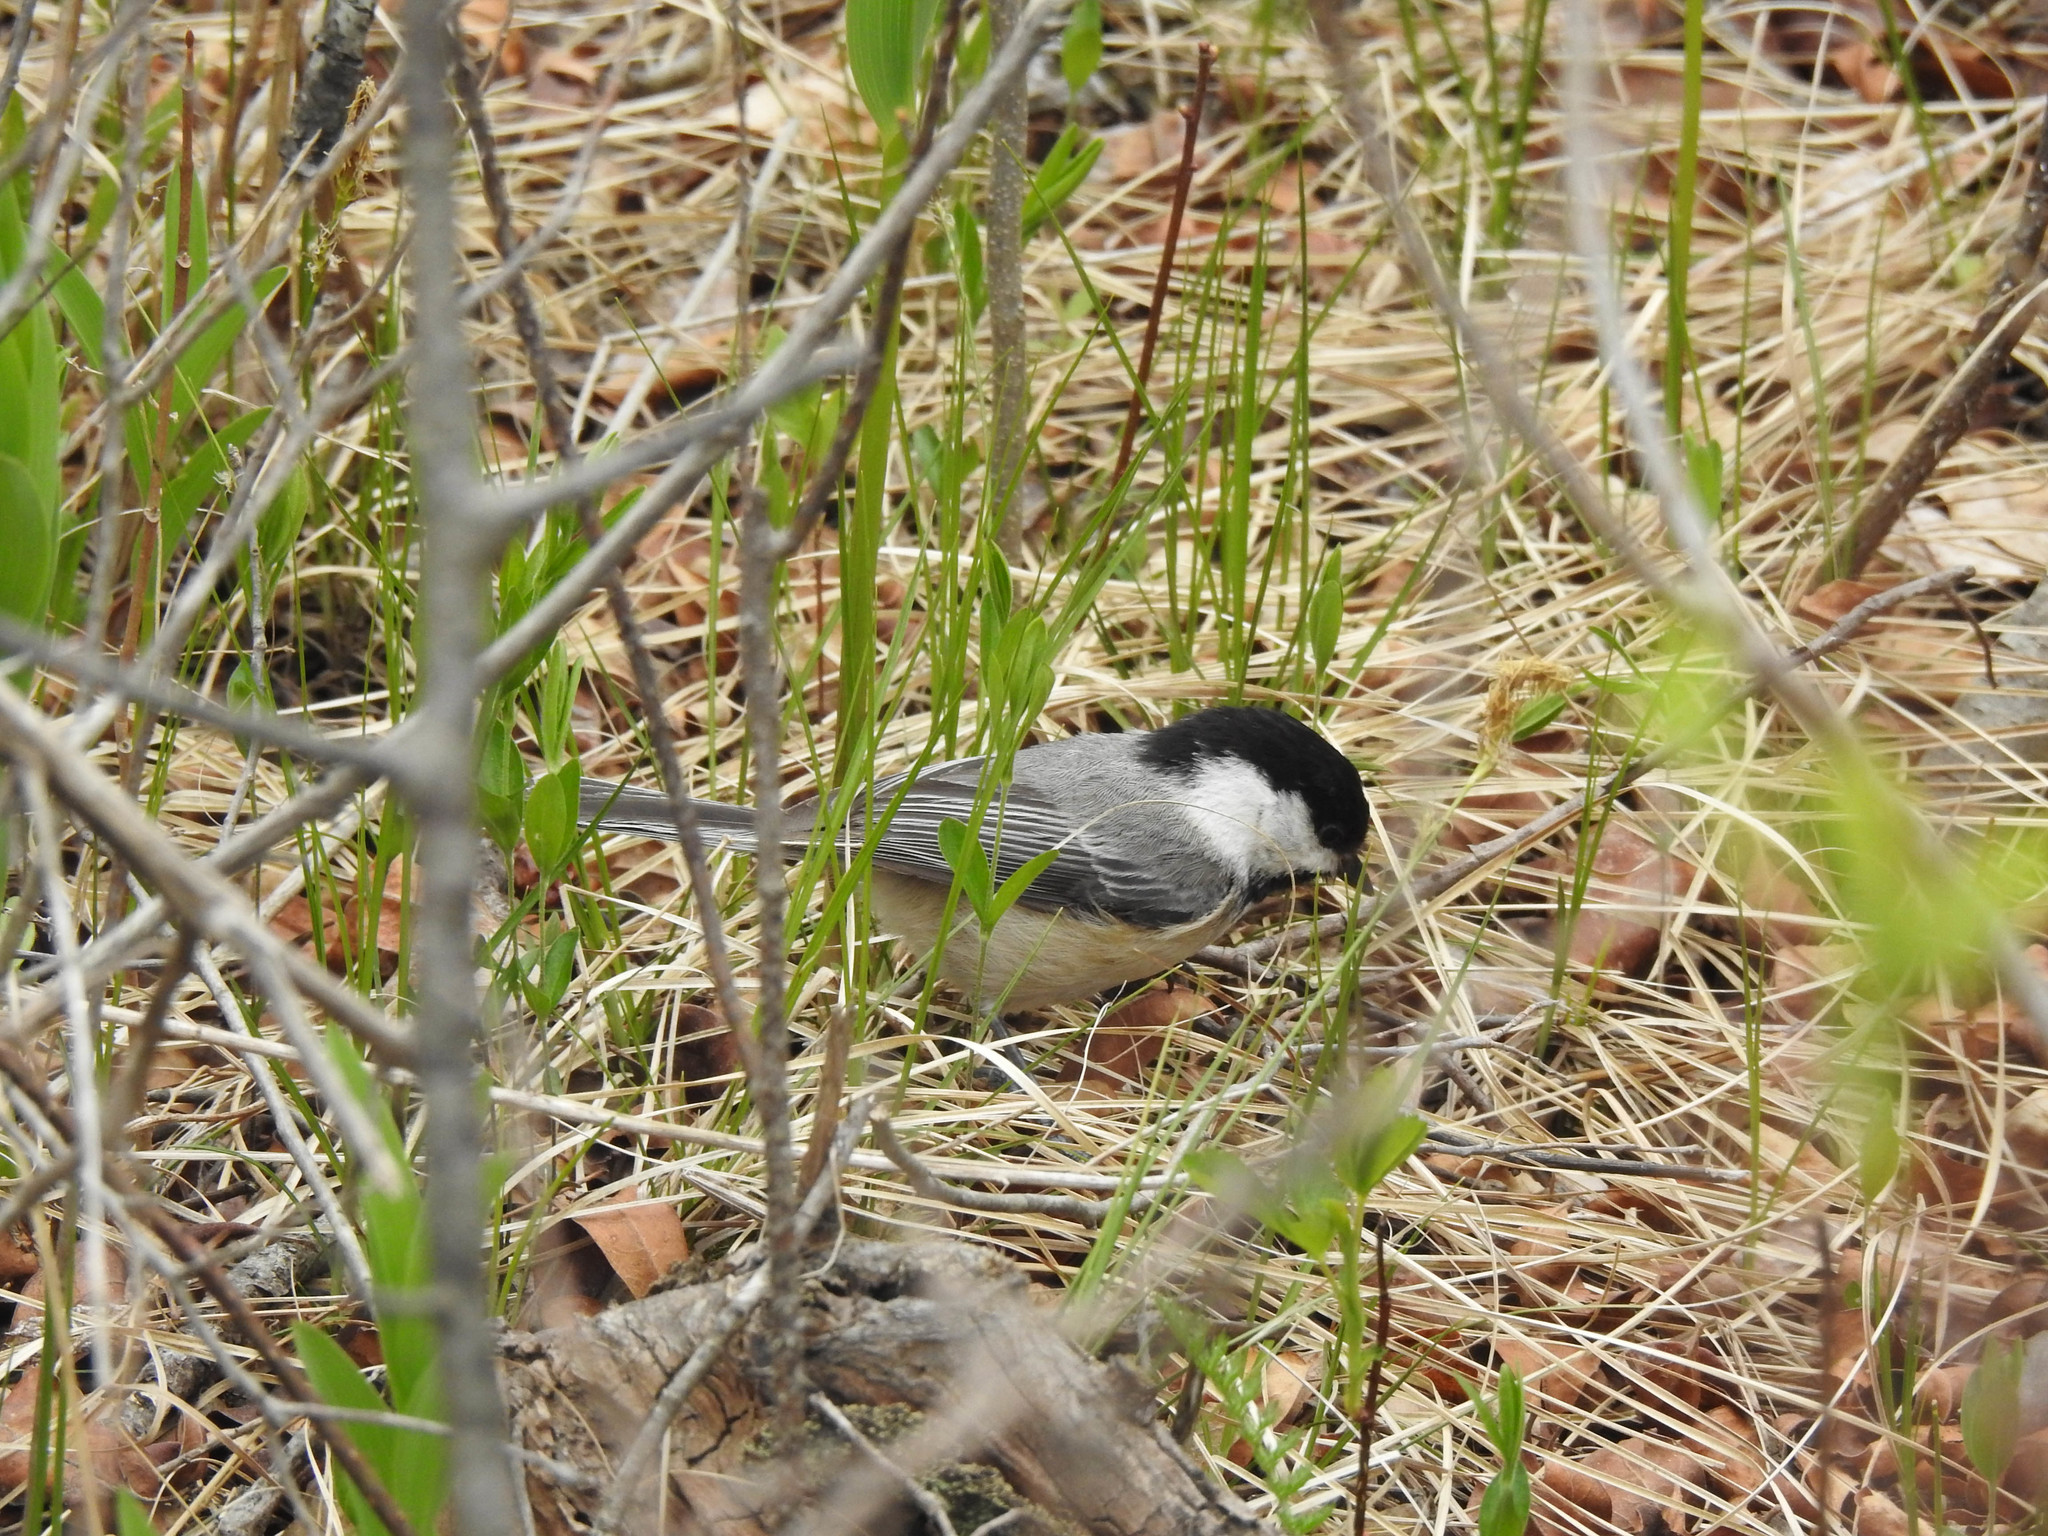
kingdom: Animalia
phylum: Chordata
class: Aves
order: Passeriformes
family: Paridae
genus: Poecile
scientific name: Poecile atricapillus
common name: Black-capped chickadee
